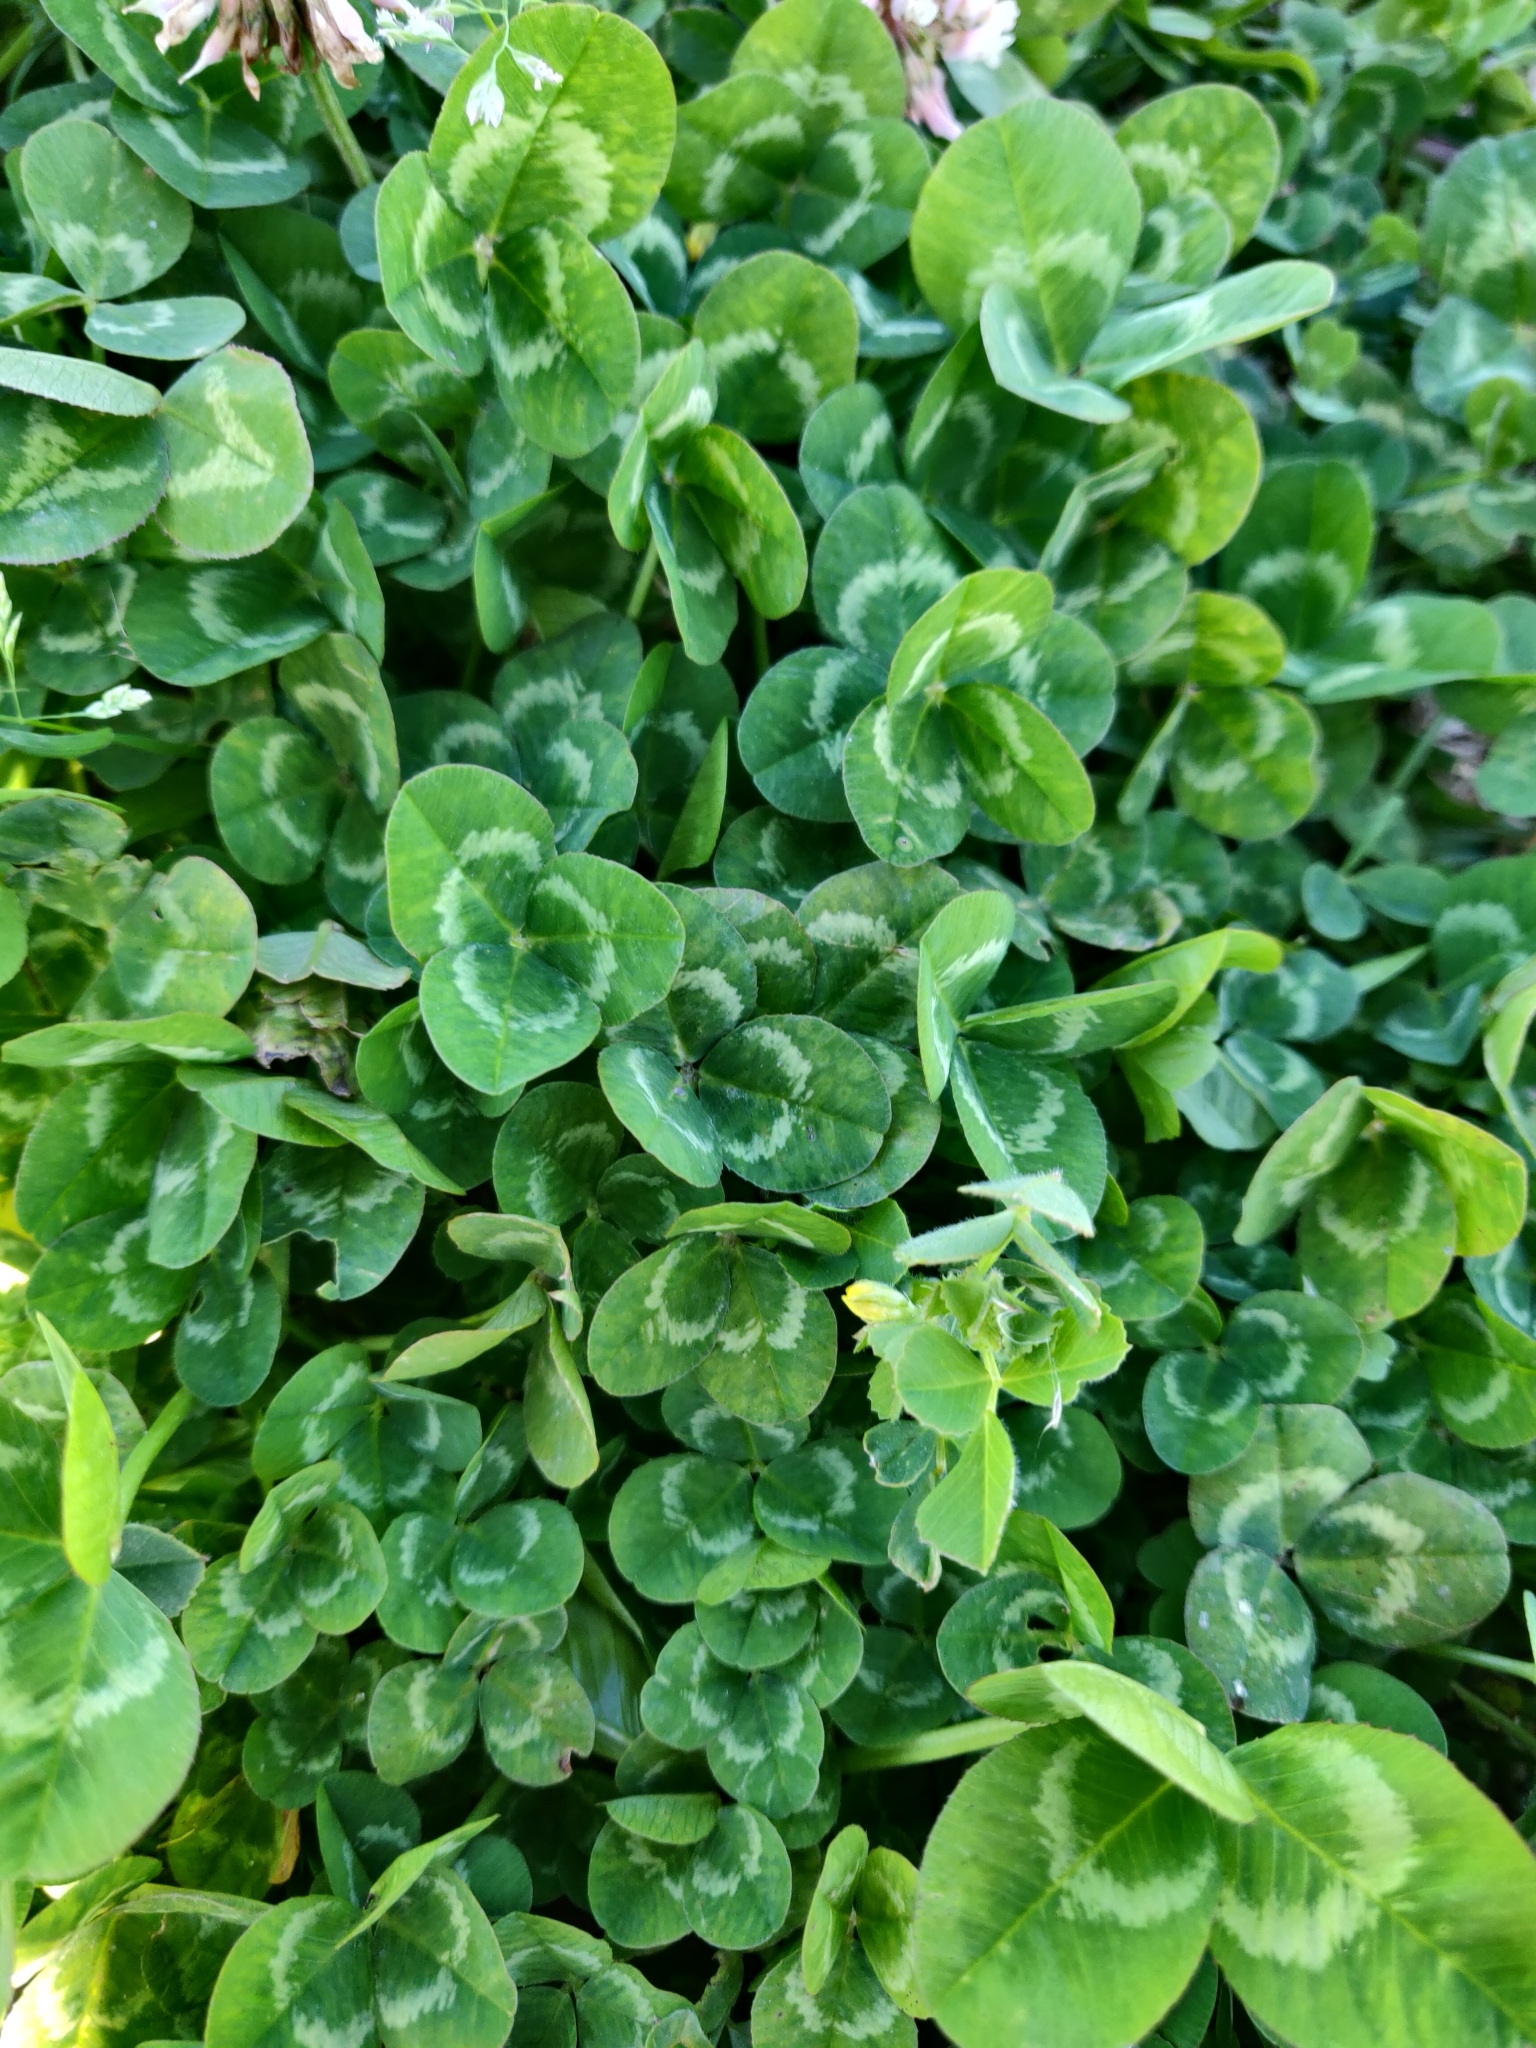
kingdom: Plantae
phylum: Tracheophyta
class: Magnoliopsida
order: Fabales
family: Fabaceae
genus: Trifolium
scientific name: Trifolium repens
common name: White clover
